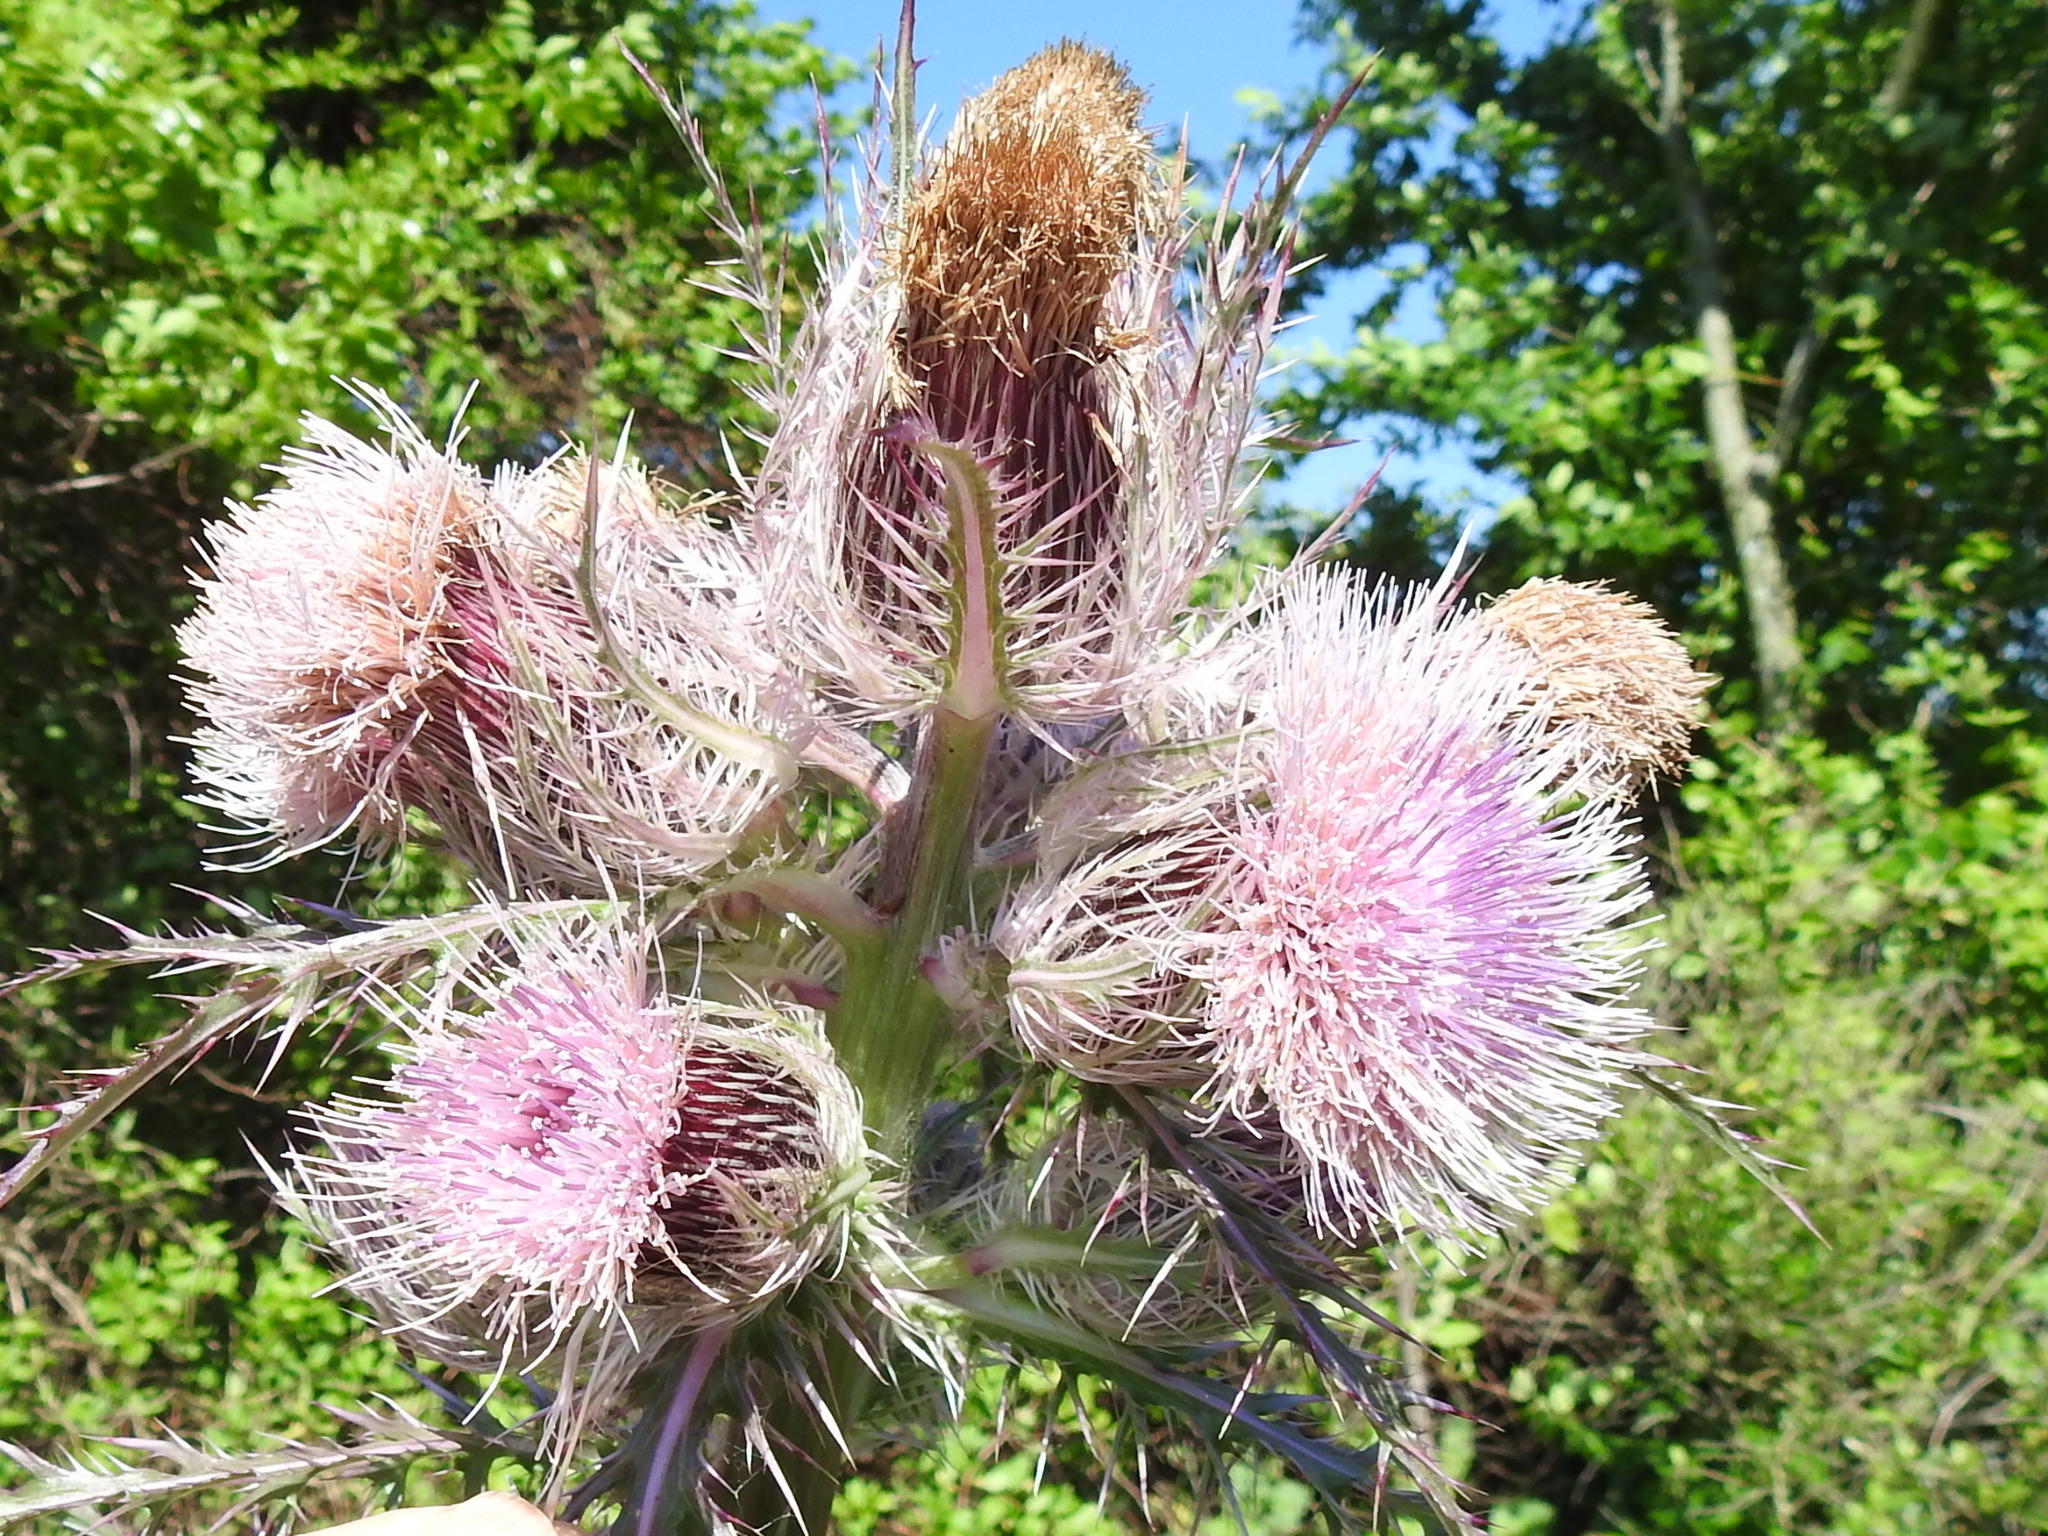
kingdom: Plantae
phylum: Tracheophyta
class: Magnoliopsida
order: Asterales
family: Asteraceae
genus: Cirsium
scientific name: Cirsium horridulum
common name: Bristly thistle
